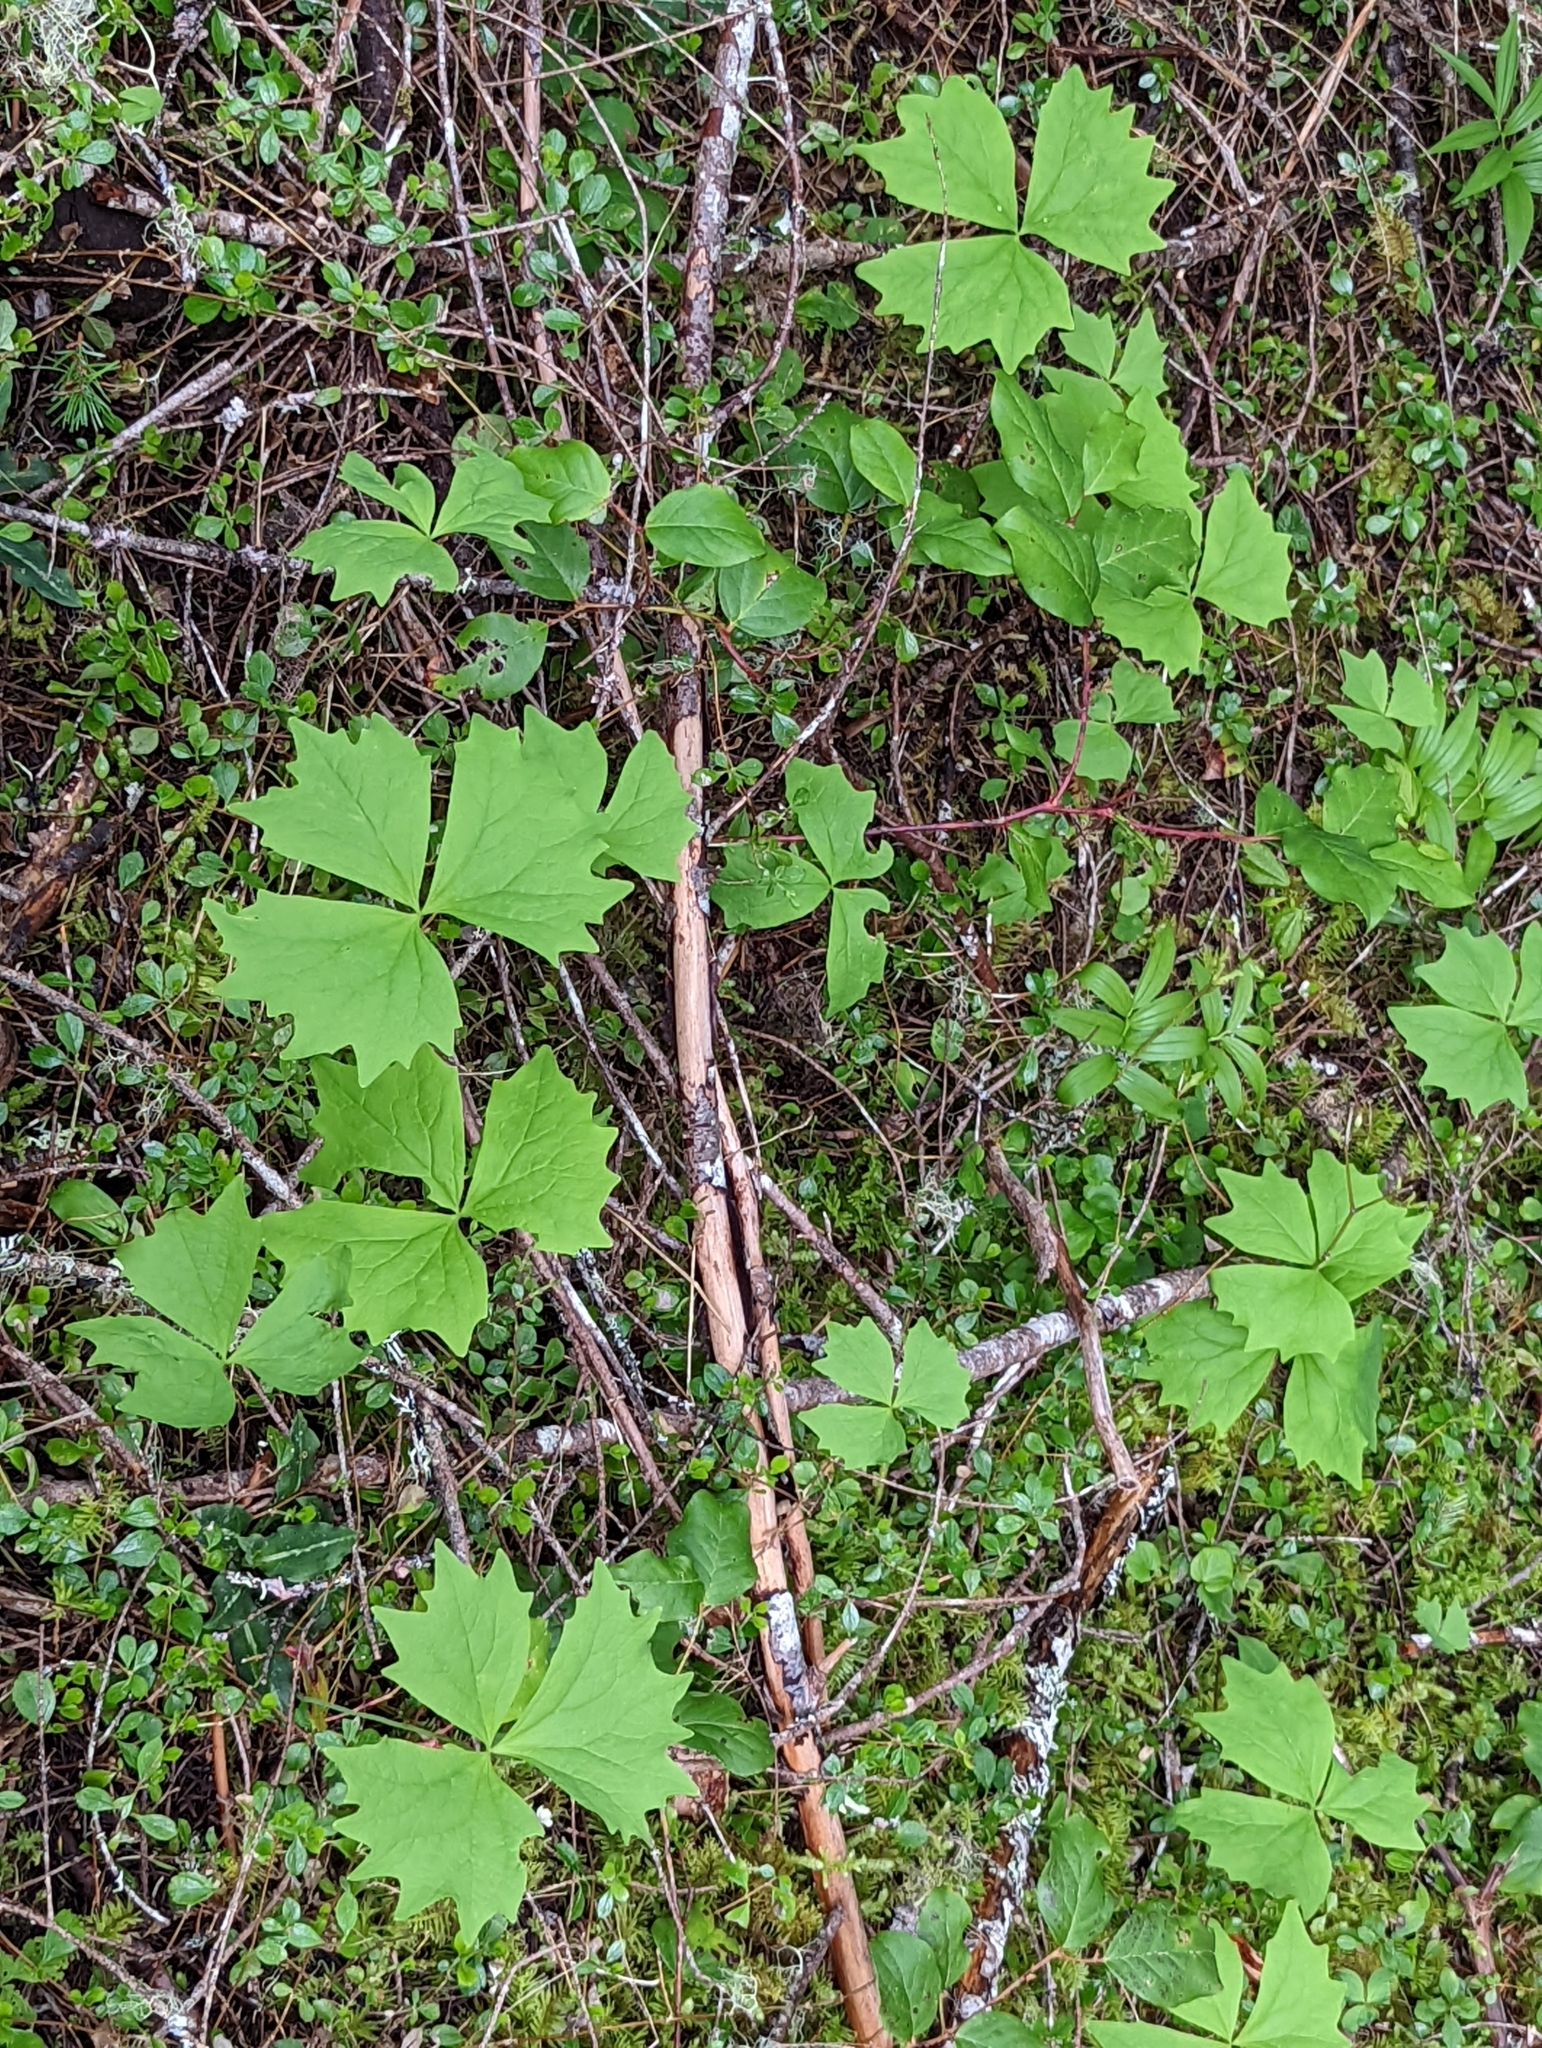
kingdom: Plantae
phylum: Tracheophyta
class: Magnoliopsida
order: Ranunculales
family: Berberidaceae
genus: Achlys
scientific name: Achlys triphylla
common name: Vanilla-leaf
